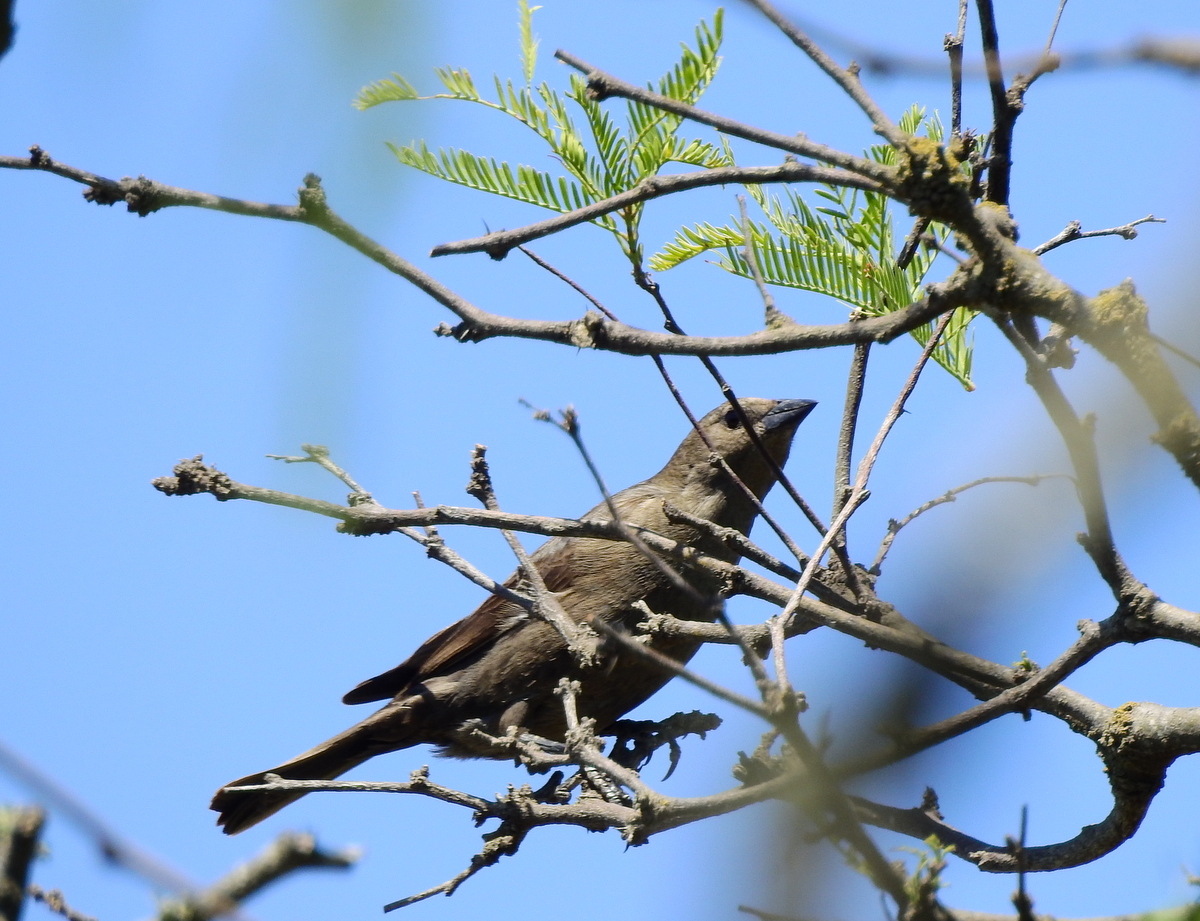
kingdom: Animalia
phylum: Chordata
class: Aves
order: Passeriformes
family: Icteridae
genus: Molothrus
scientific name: Molothrus bonariensis
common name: Shiny cowbird
